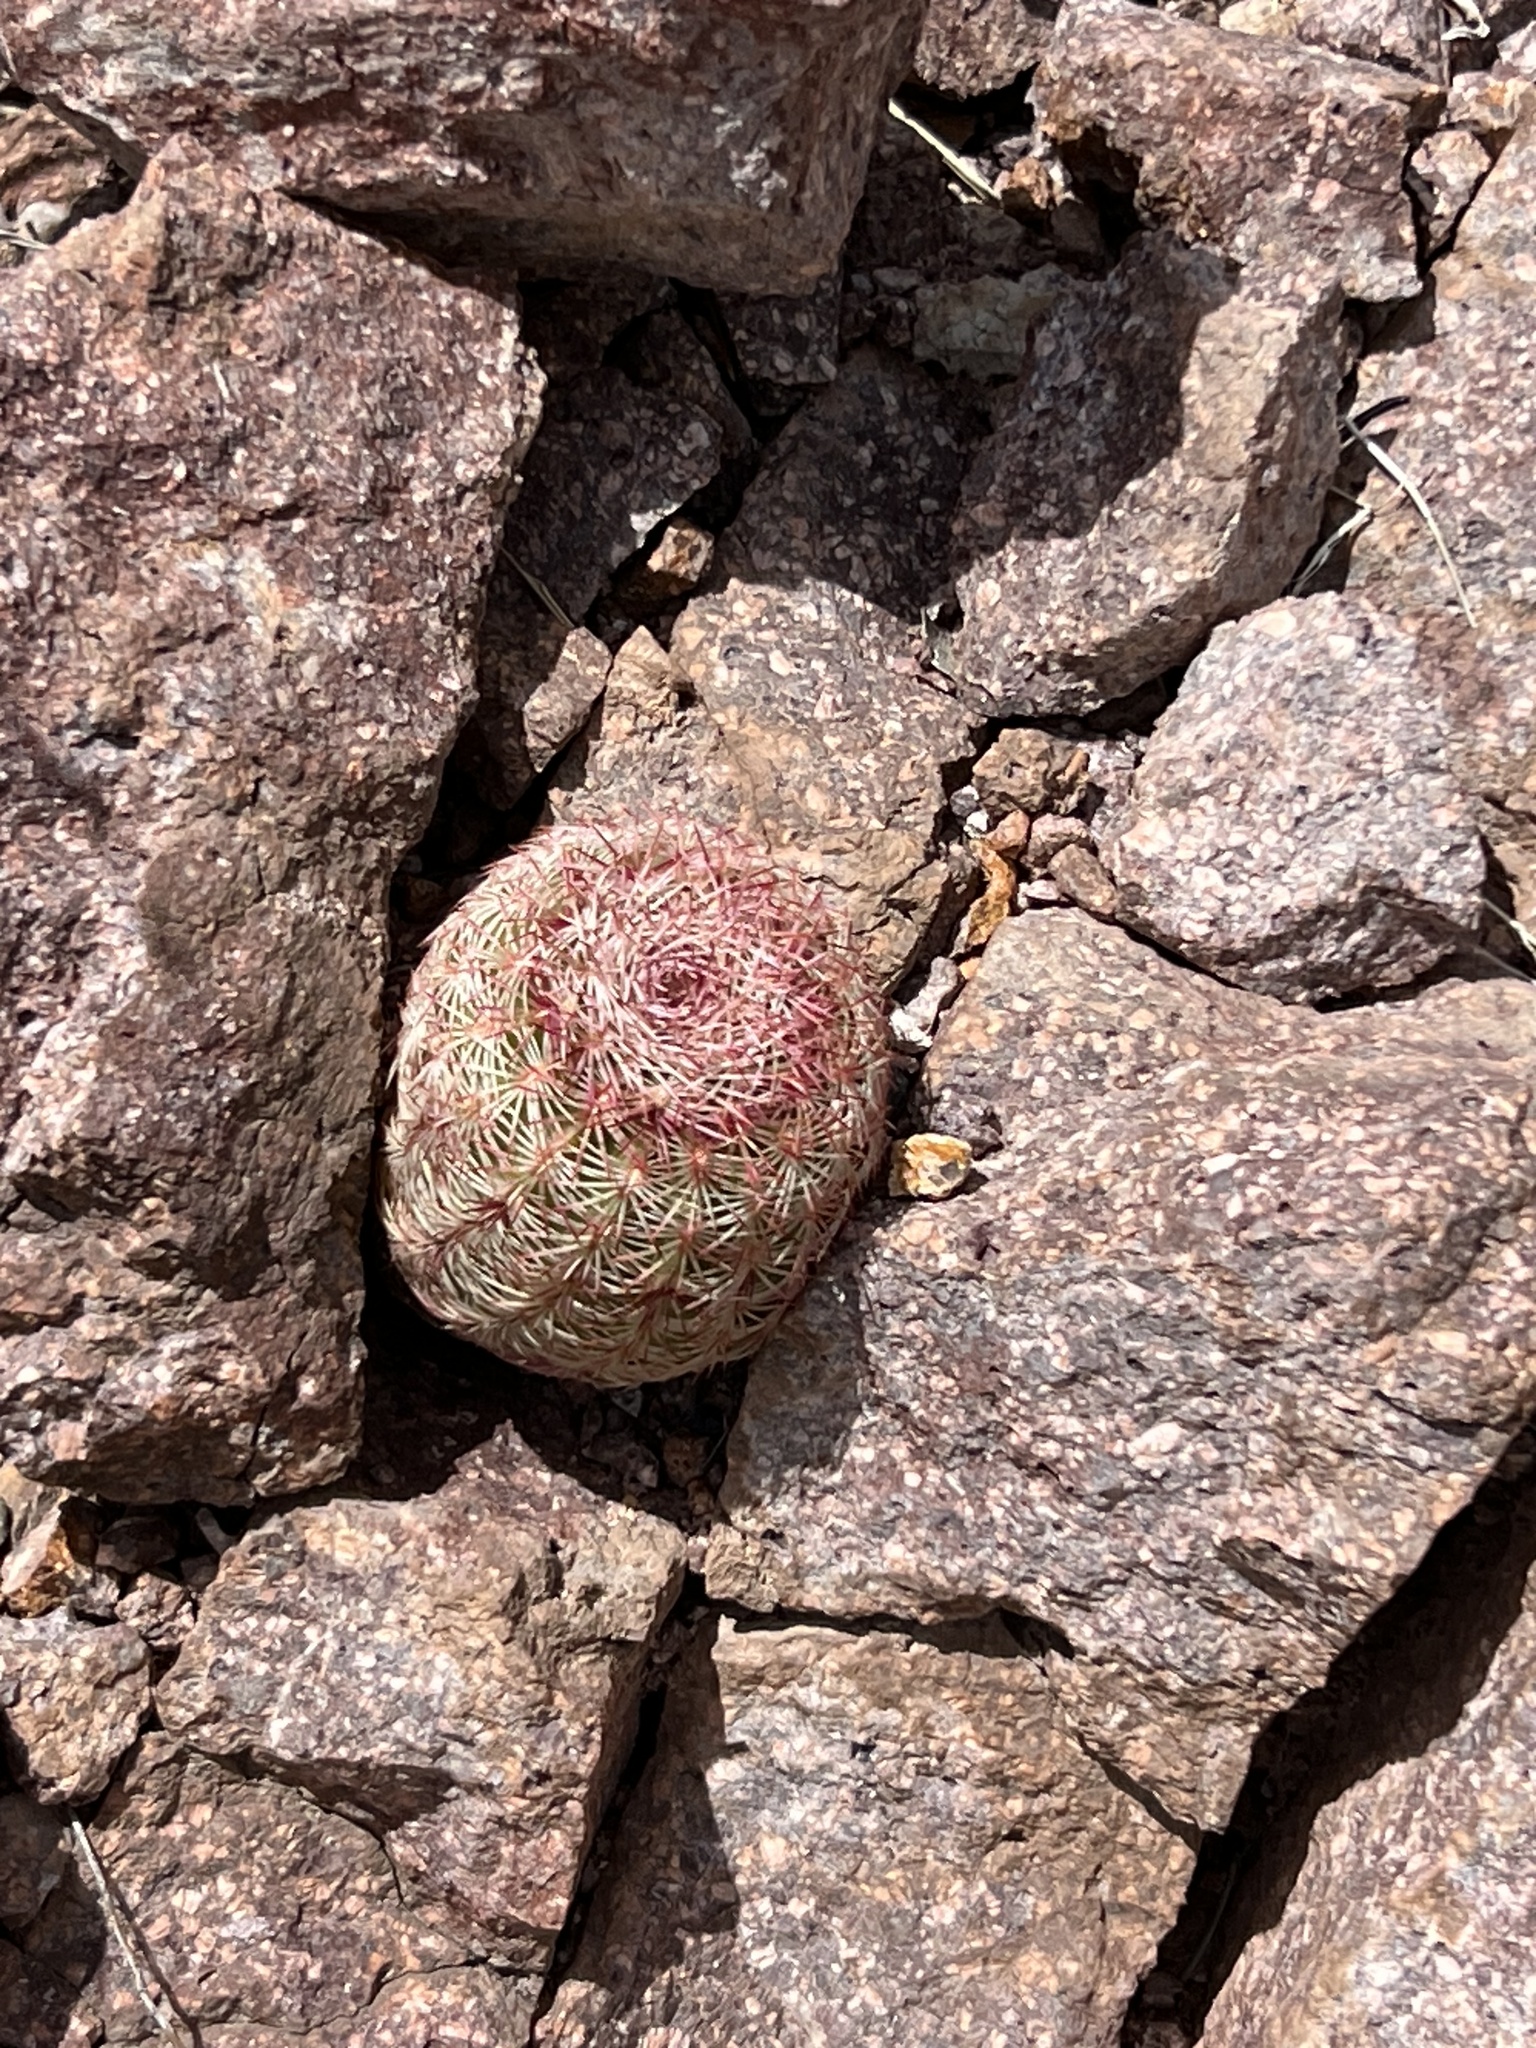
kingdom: Plantae
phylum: Tracheophyta
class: Magnoliopsida
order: Caryophyllales
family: Cactaceae
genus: Echinocereus
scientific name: Echinocereus rigidissimus
